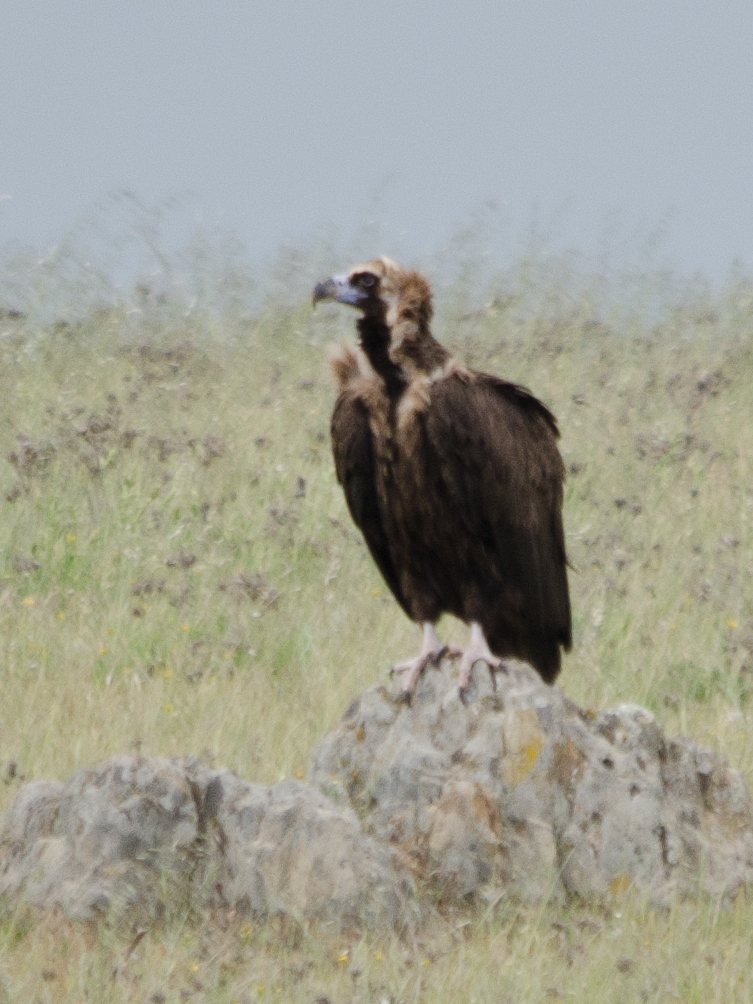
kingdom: Animalia
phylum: Chordata
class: Aves
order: Accipitriformes
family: Accipitridae
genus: Aegypius
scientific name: Aegypius monachus
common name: Cinereous vulture
